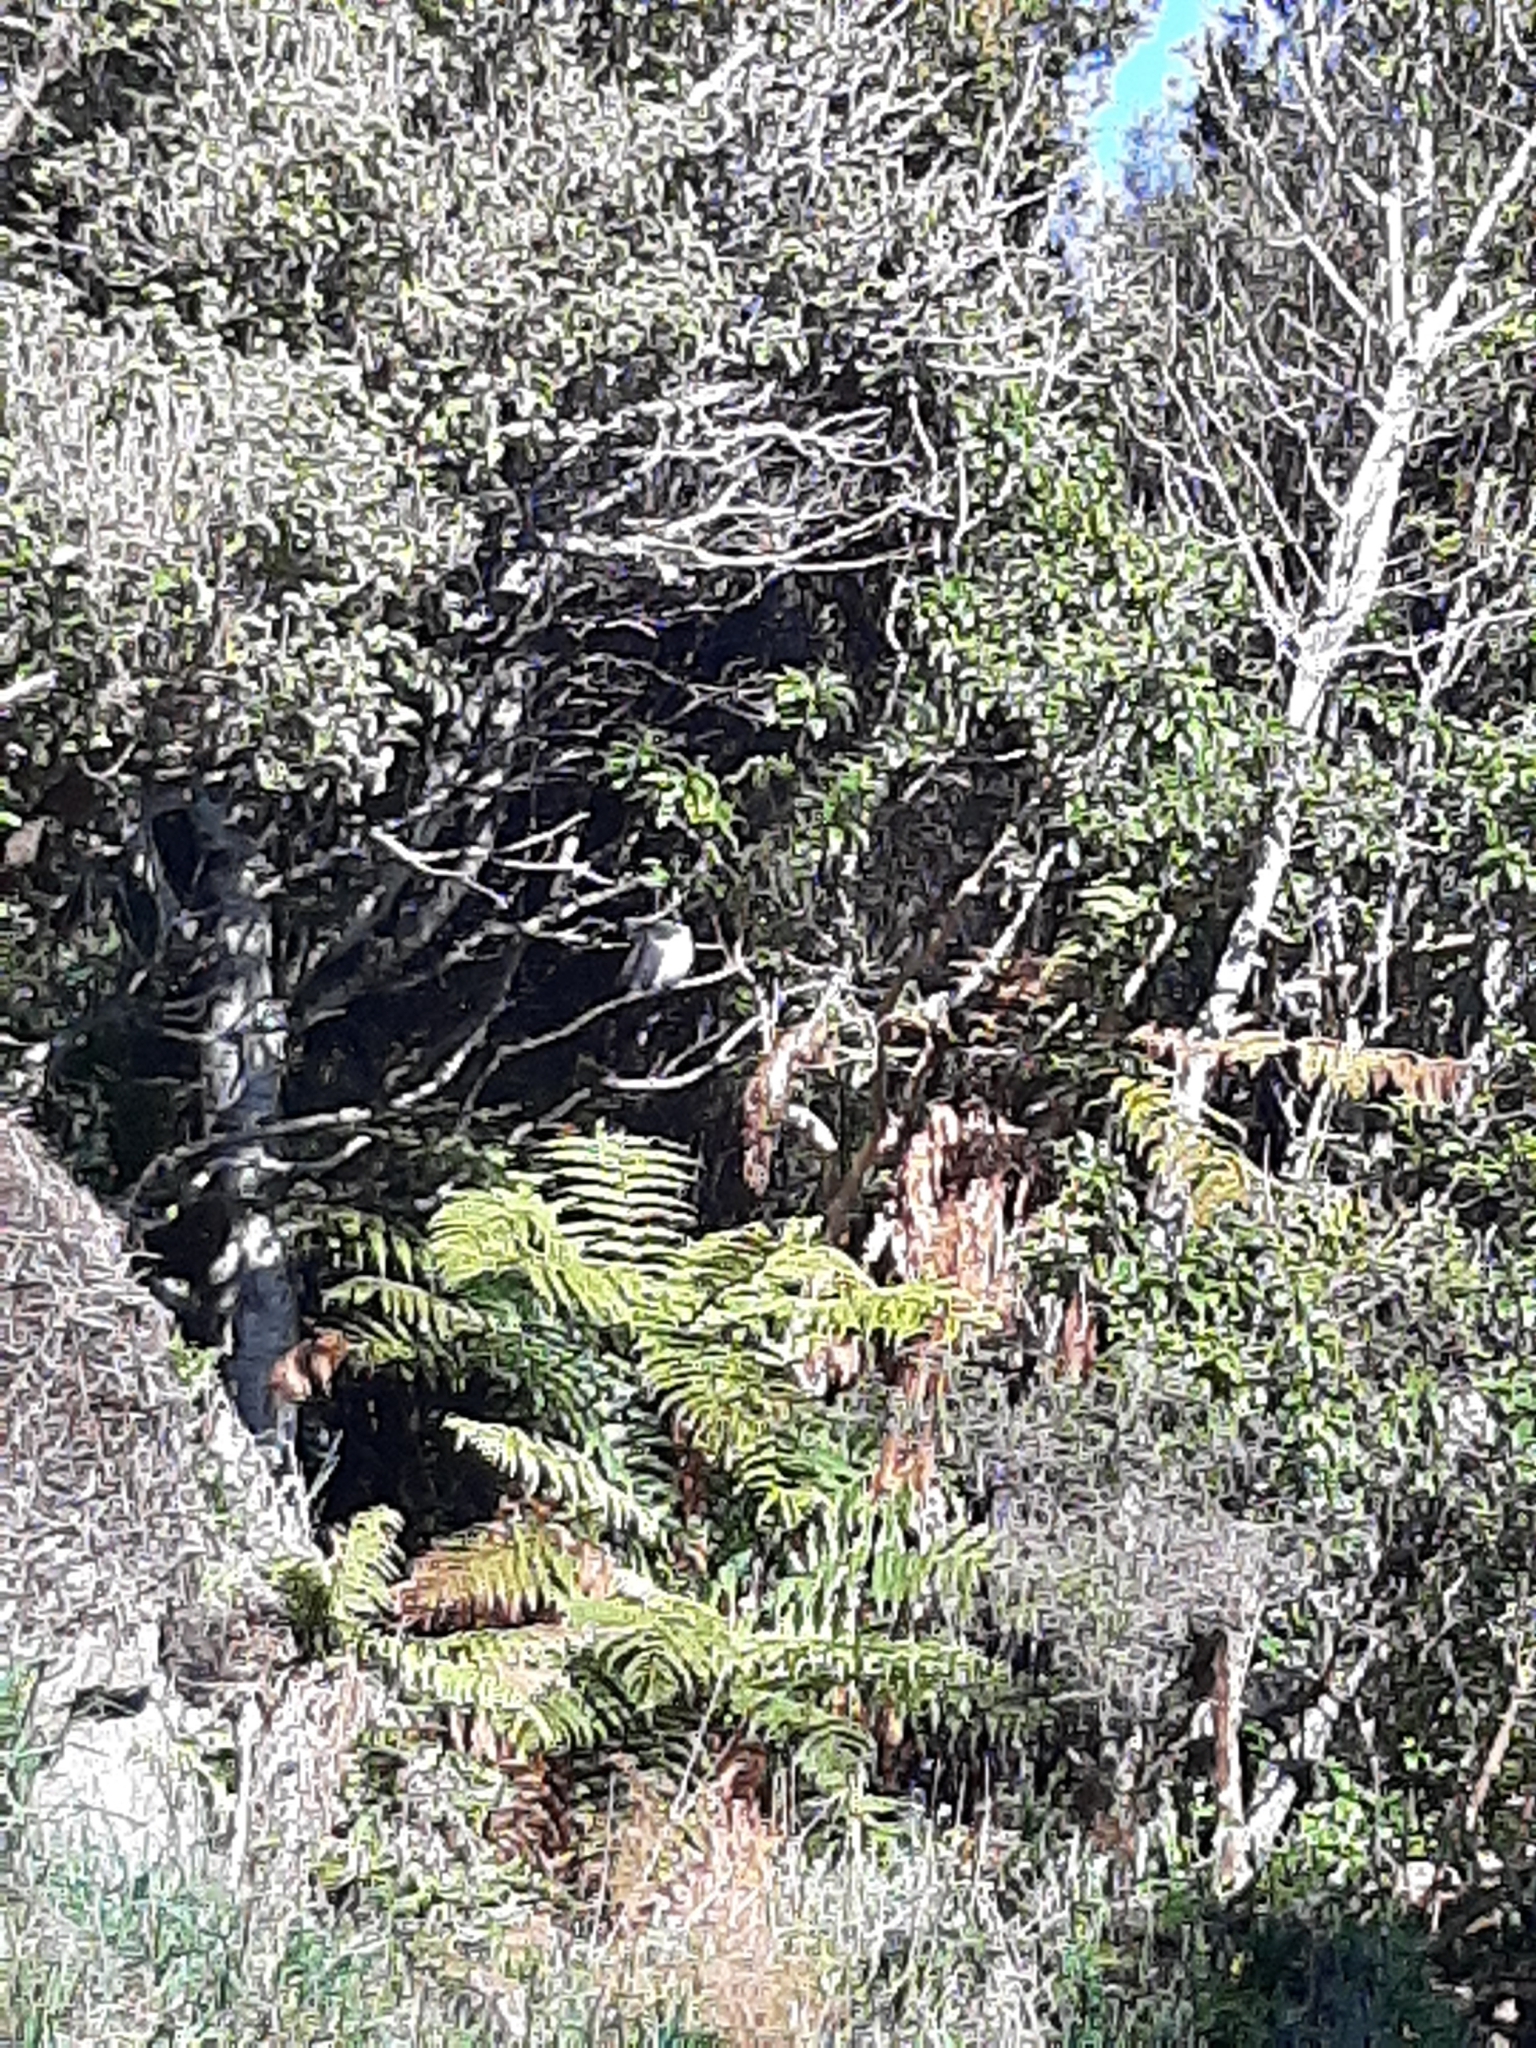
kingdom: Animalia
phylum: Chordata
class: Aves
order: Columbiformes
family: Columbidae
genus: Hemiphaga
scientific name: Hemiphaga novaeseelandiae
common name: New zealand pigeon
